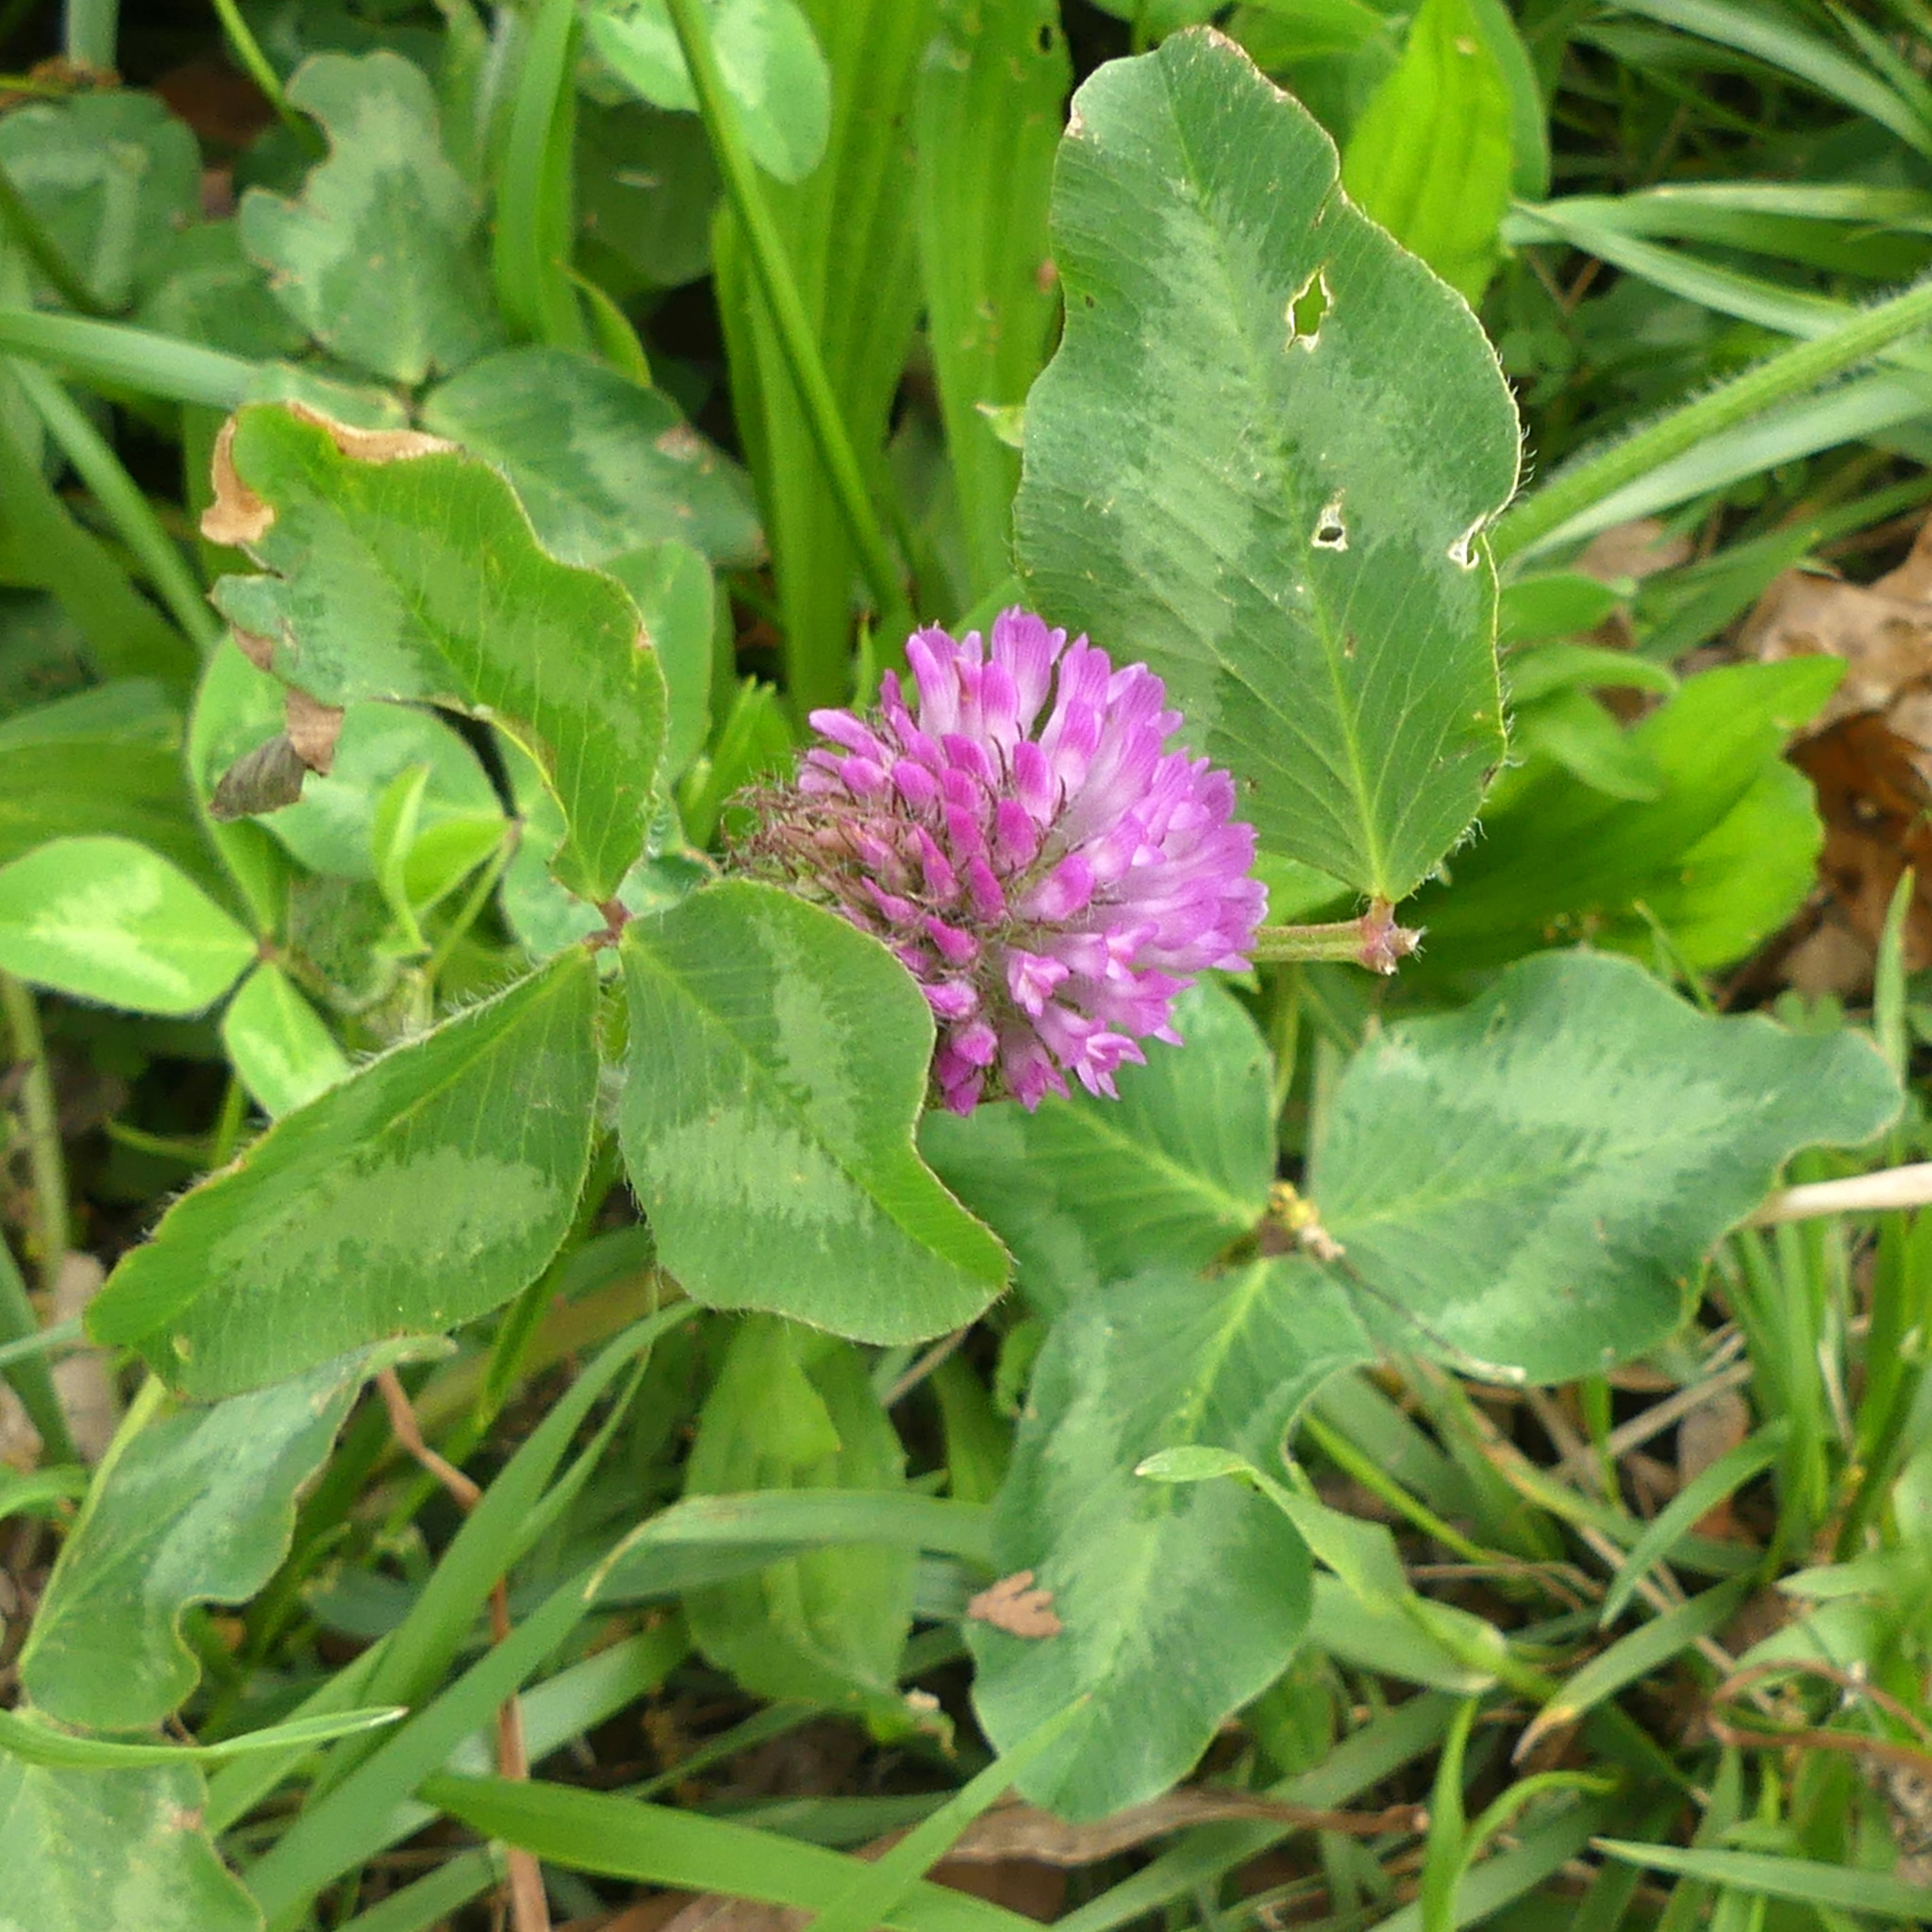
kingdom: Plantae
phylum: Tracheophyta
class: Magnoliopsida
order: Fabales
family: Fabaceae
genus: Trifolium
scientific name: Trifolium pratense
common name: Red clover
